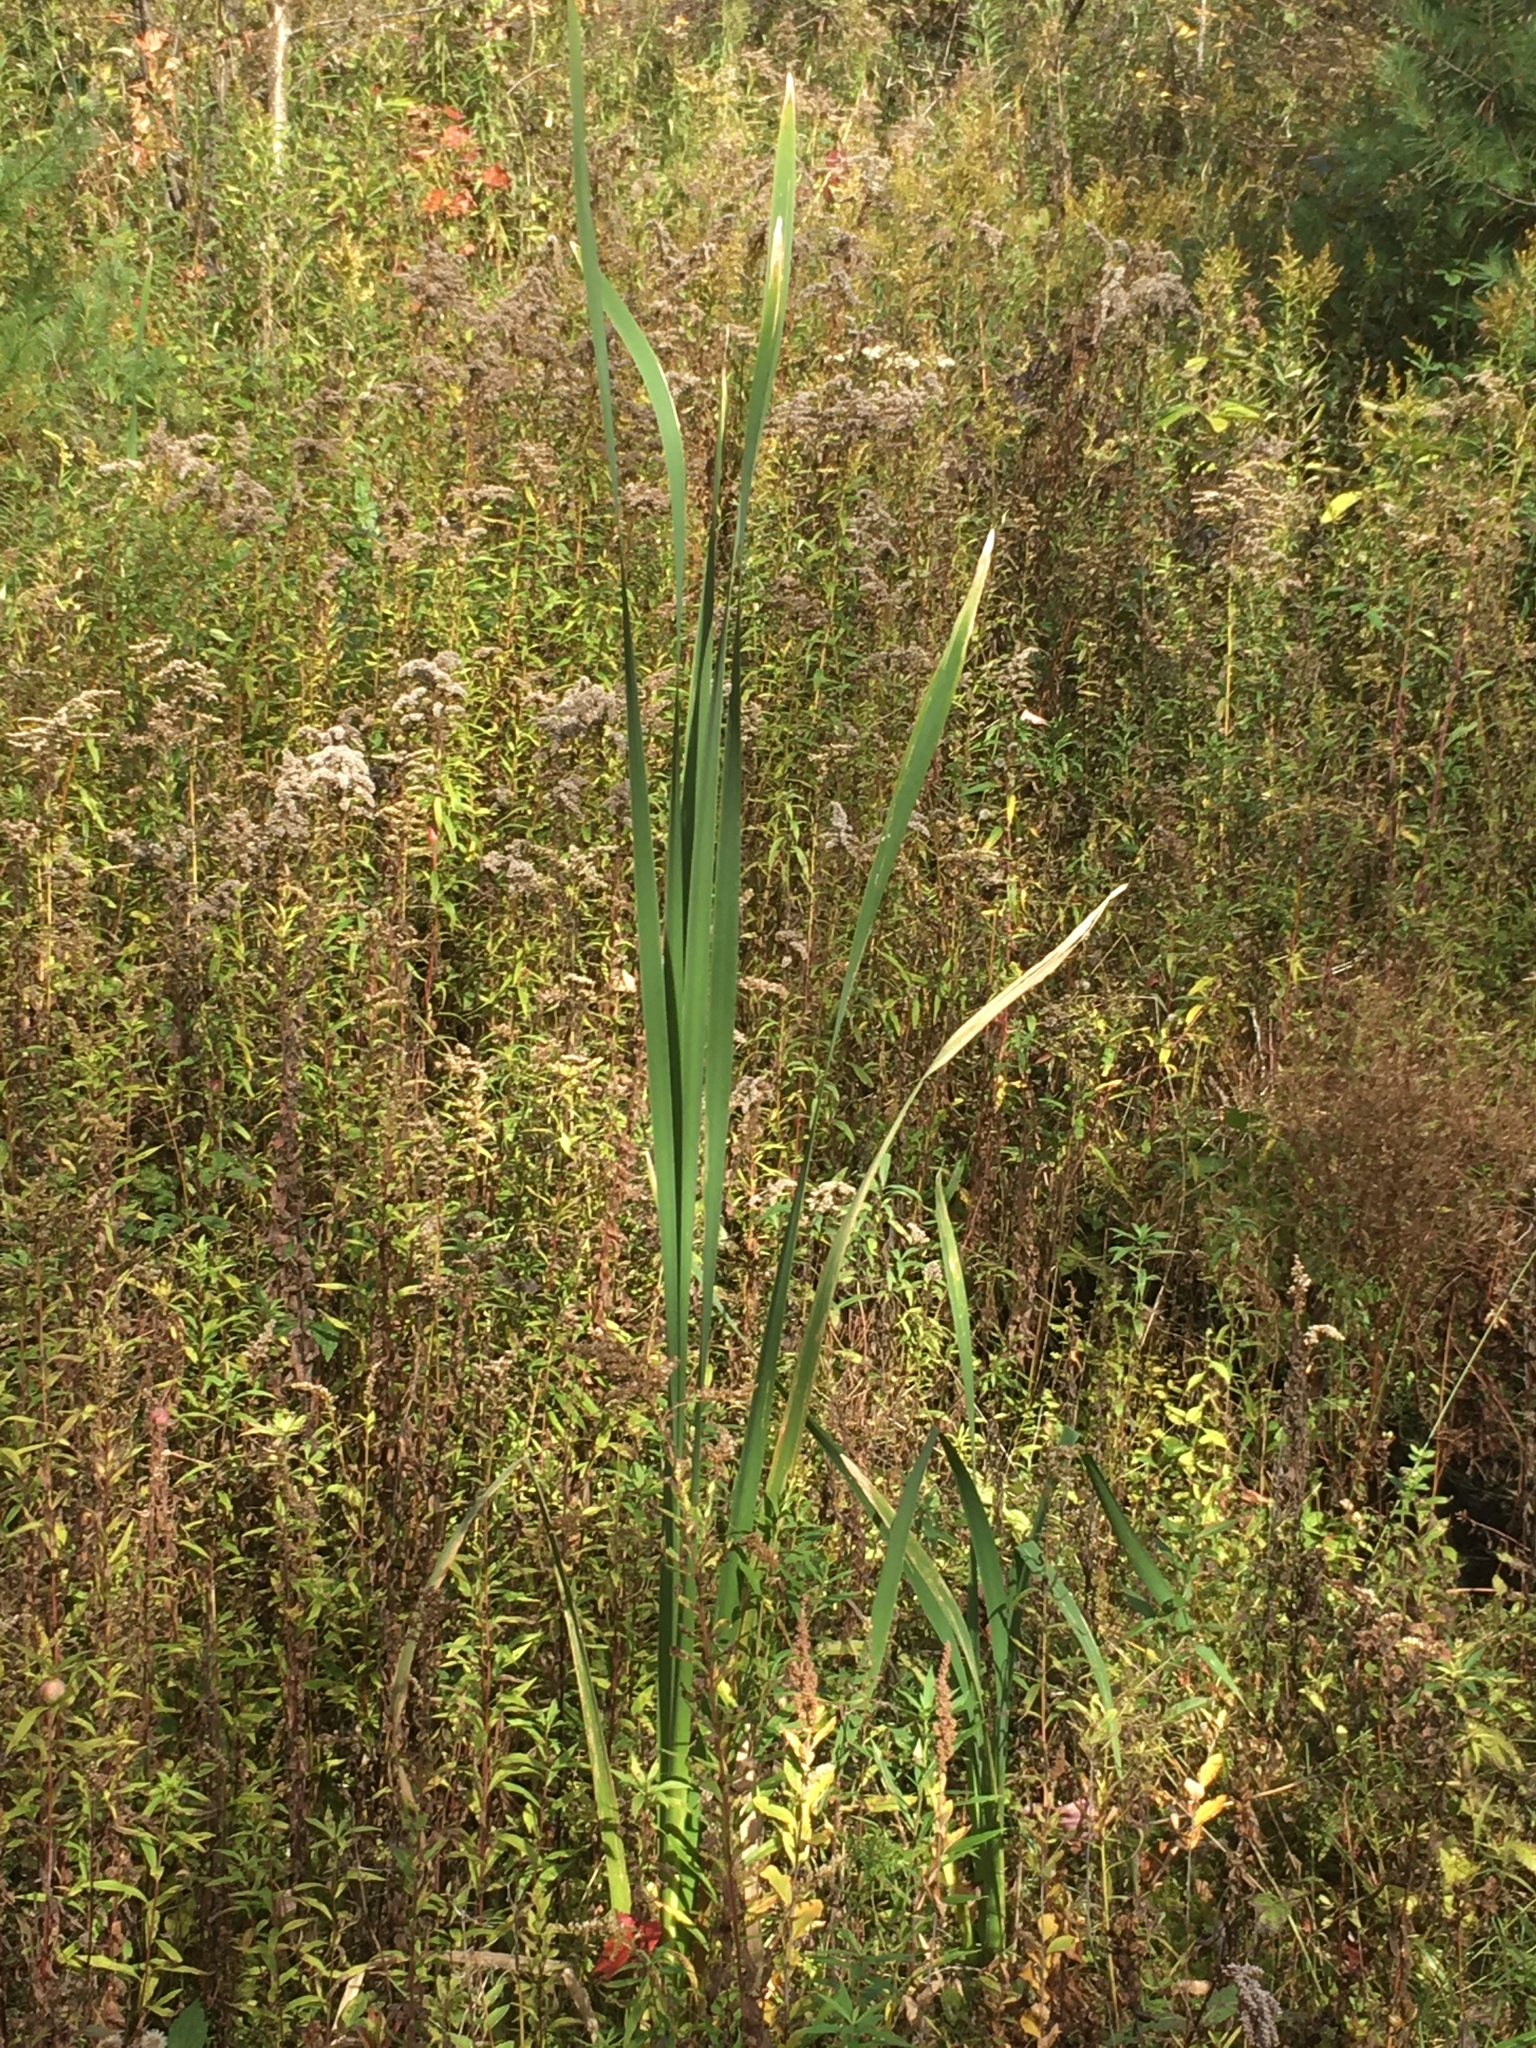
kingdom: Plantae
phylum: Tracheophyta
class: Liliopsida
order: Poales
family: Typhaceae
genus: Typha
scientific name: Typha latifolia
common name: Broadleaf cattail
